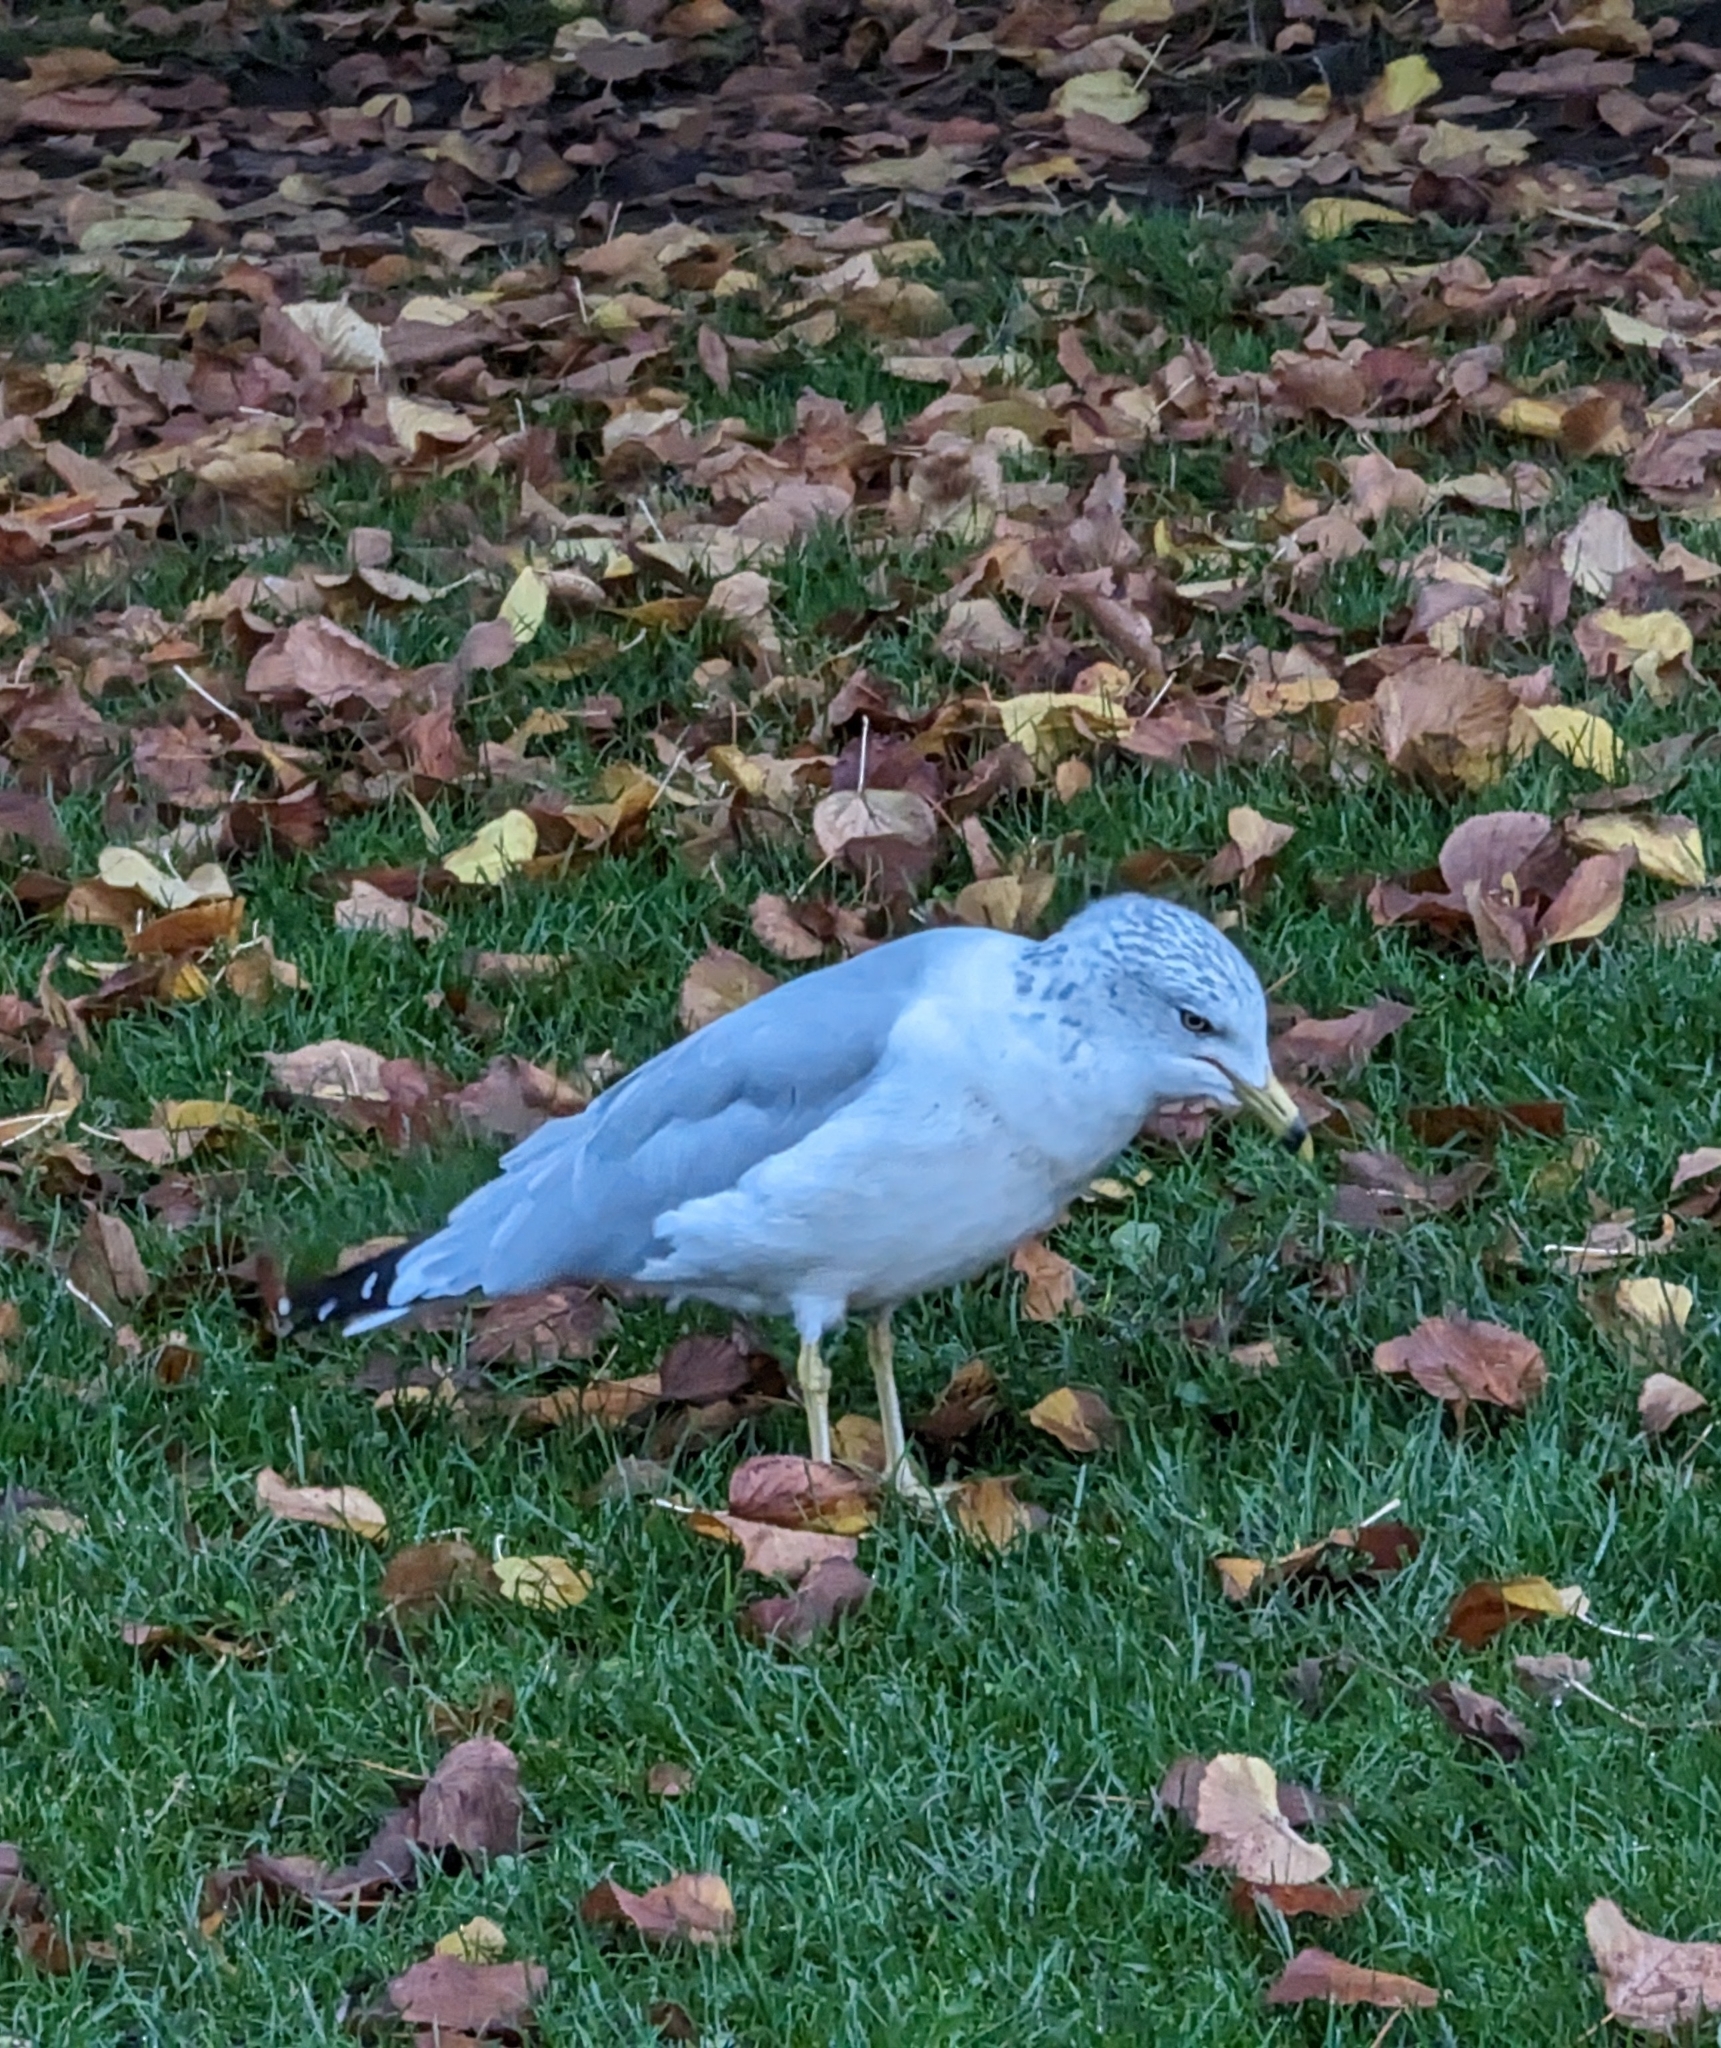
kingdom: Animalia
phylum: Chordata
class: Aves
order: Charadriiformes
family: Laridae
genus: Larus
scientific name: Larus delawarensis
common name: Ring-billed gull
